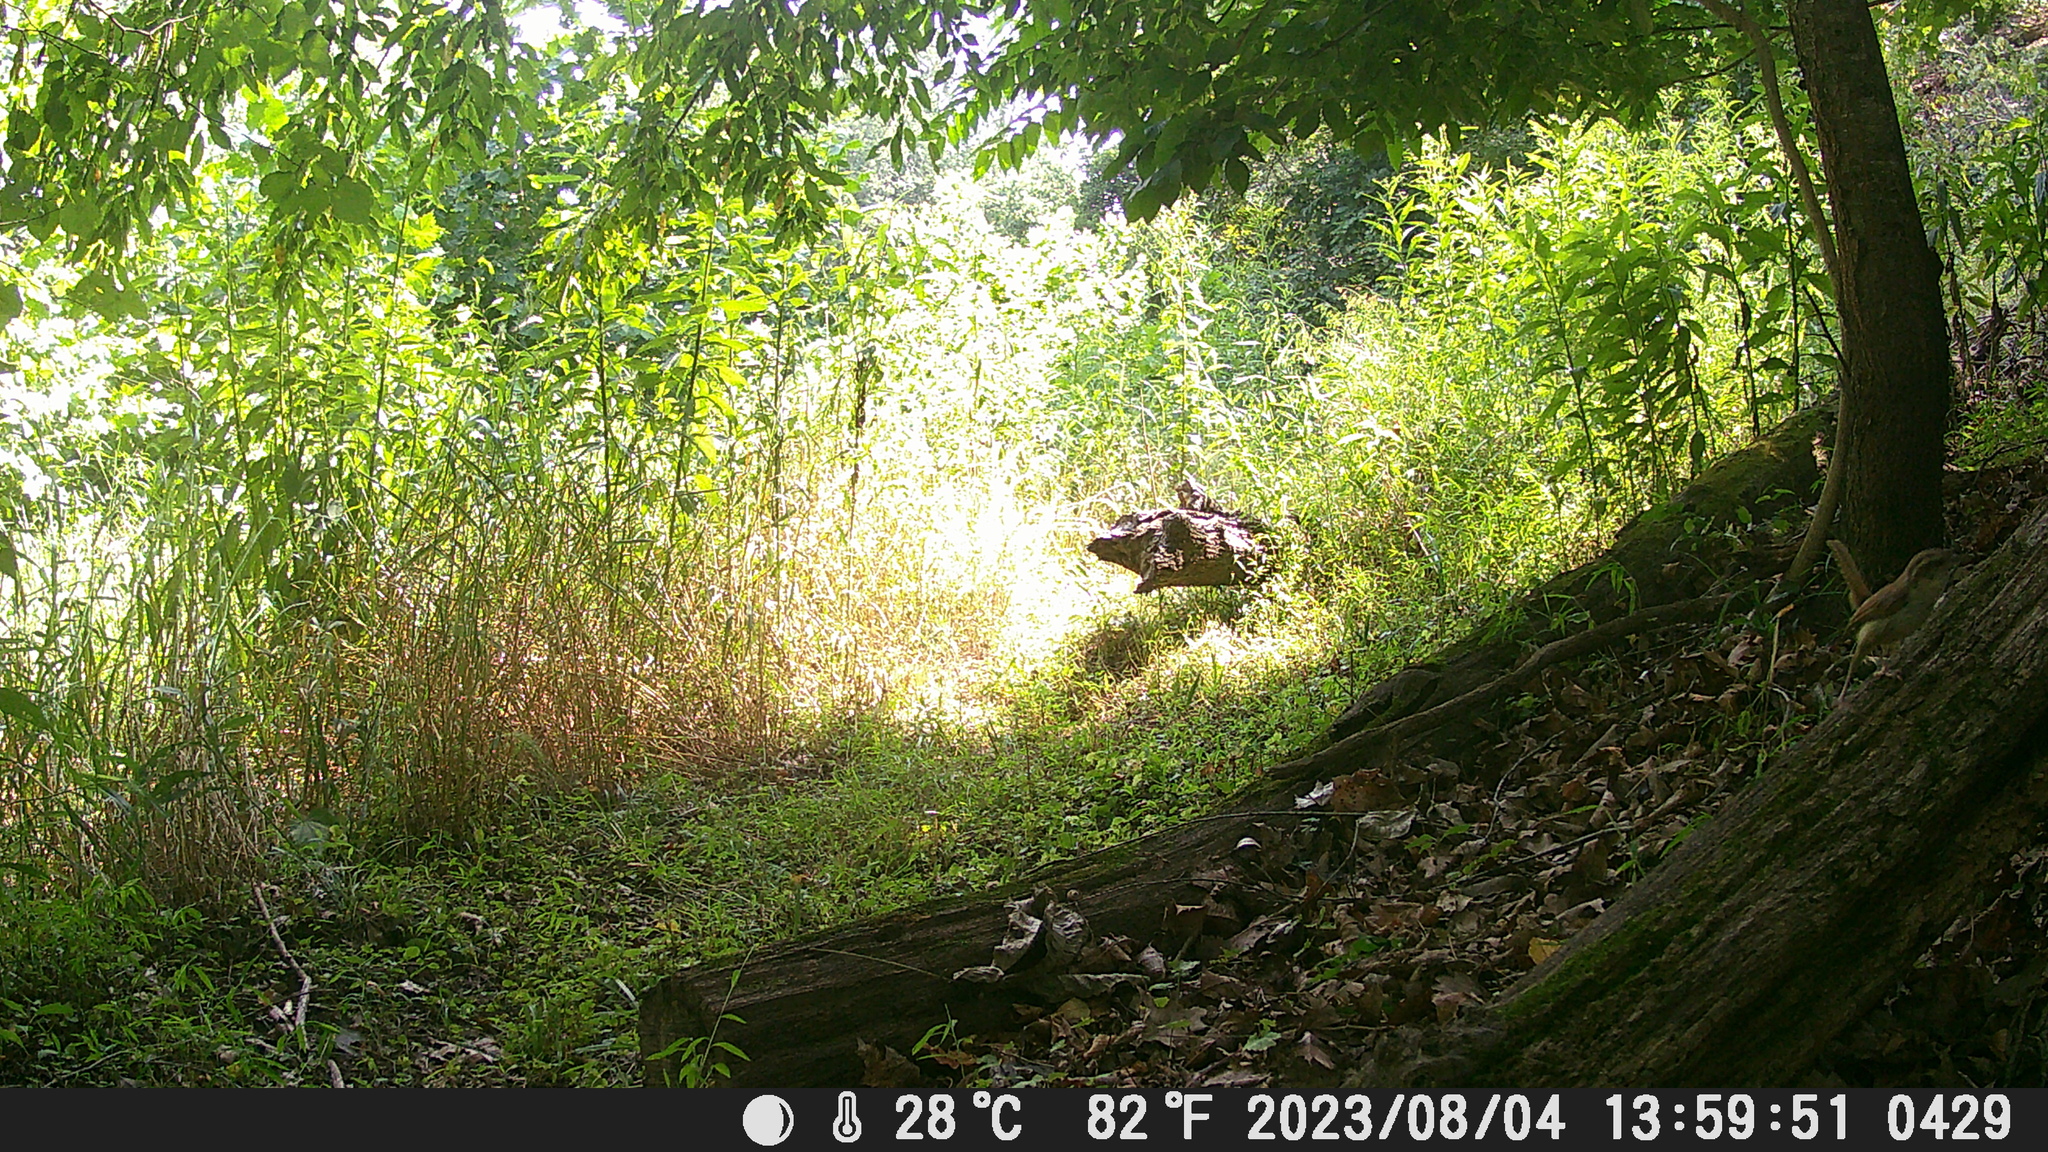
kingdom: Animalia
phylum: Chordata
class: Aves
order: Passeriformes
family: Troglodytidae
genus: Thryothorus
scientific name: Thryothorus ludovicianus
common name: Carolina wren
